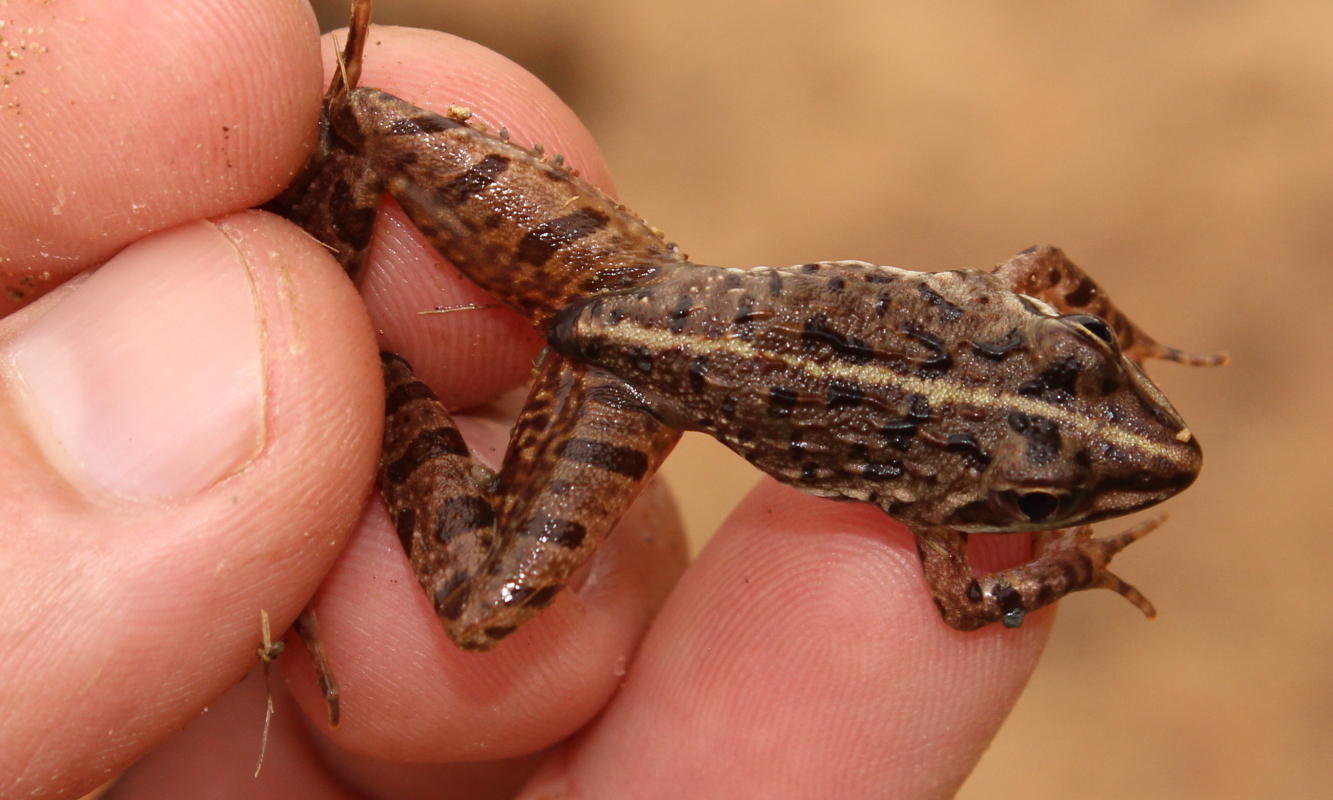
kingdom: Animalia
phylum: Chordata
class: Amphibia
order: Anura
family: Pyxicephalidae
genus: Amietia
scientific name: Amietia delalandii
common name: Delalande's river frog
